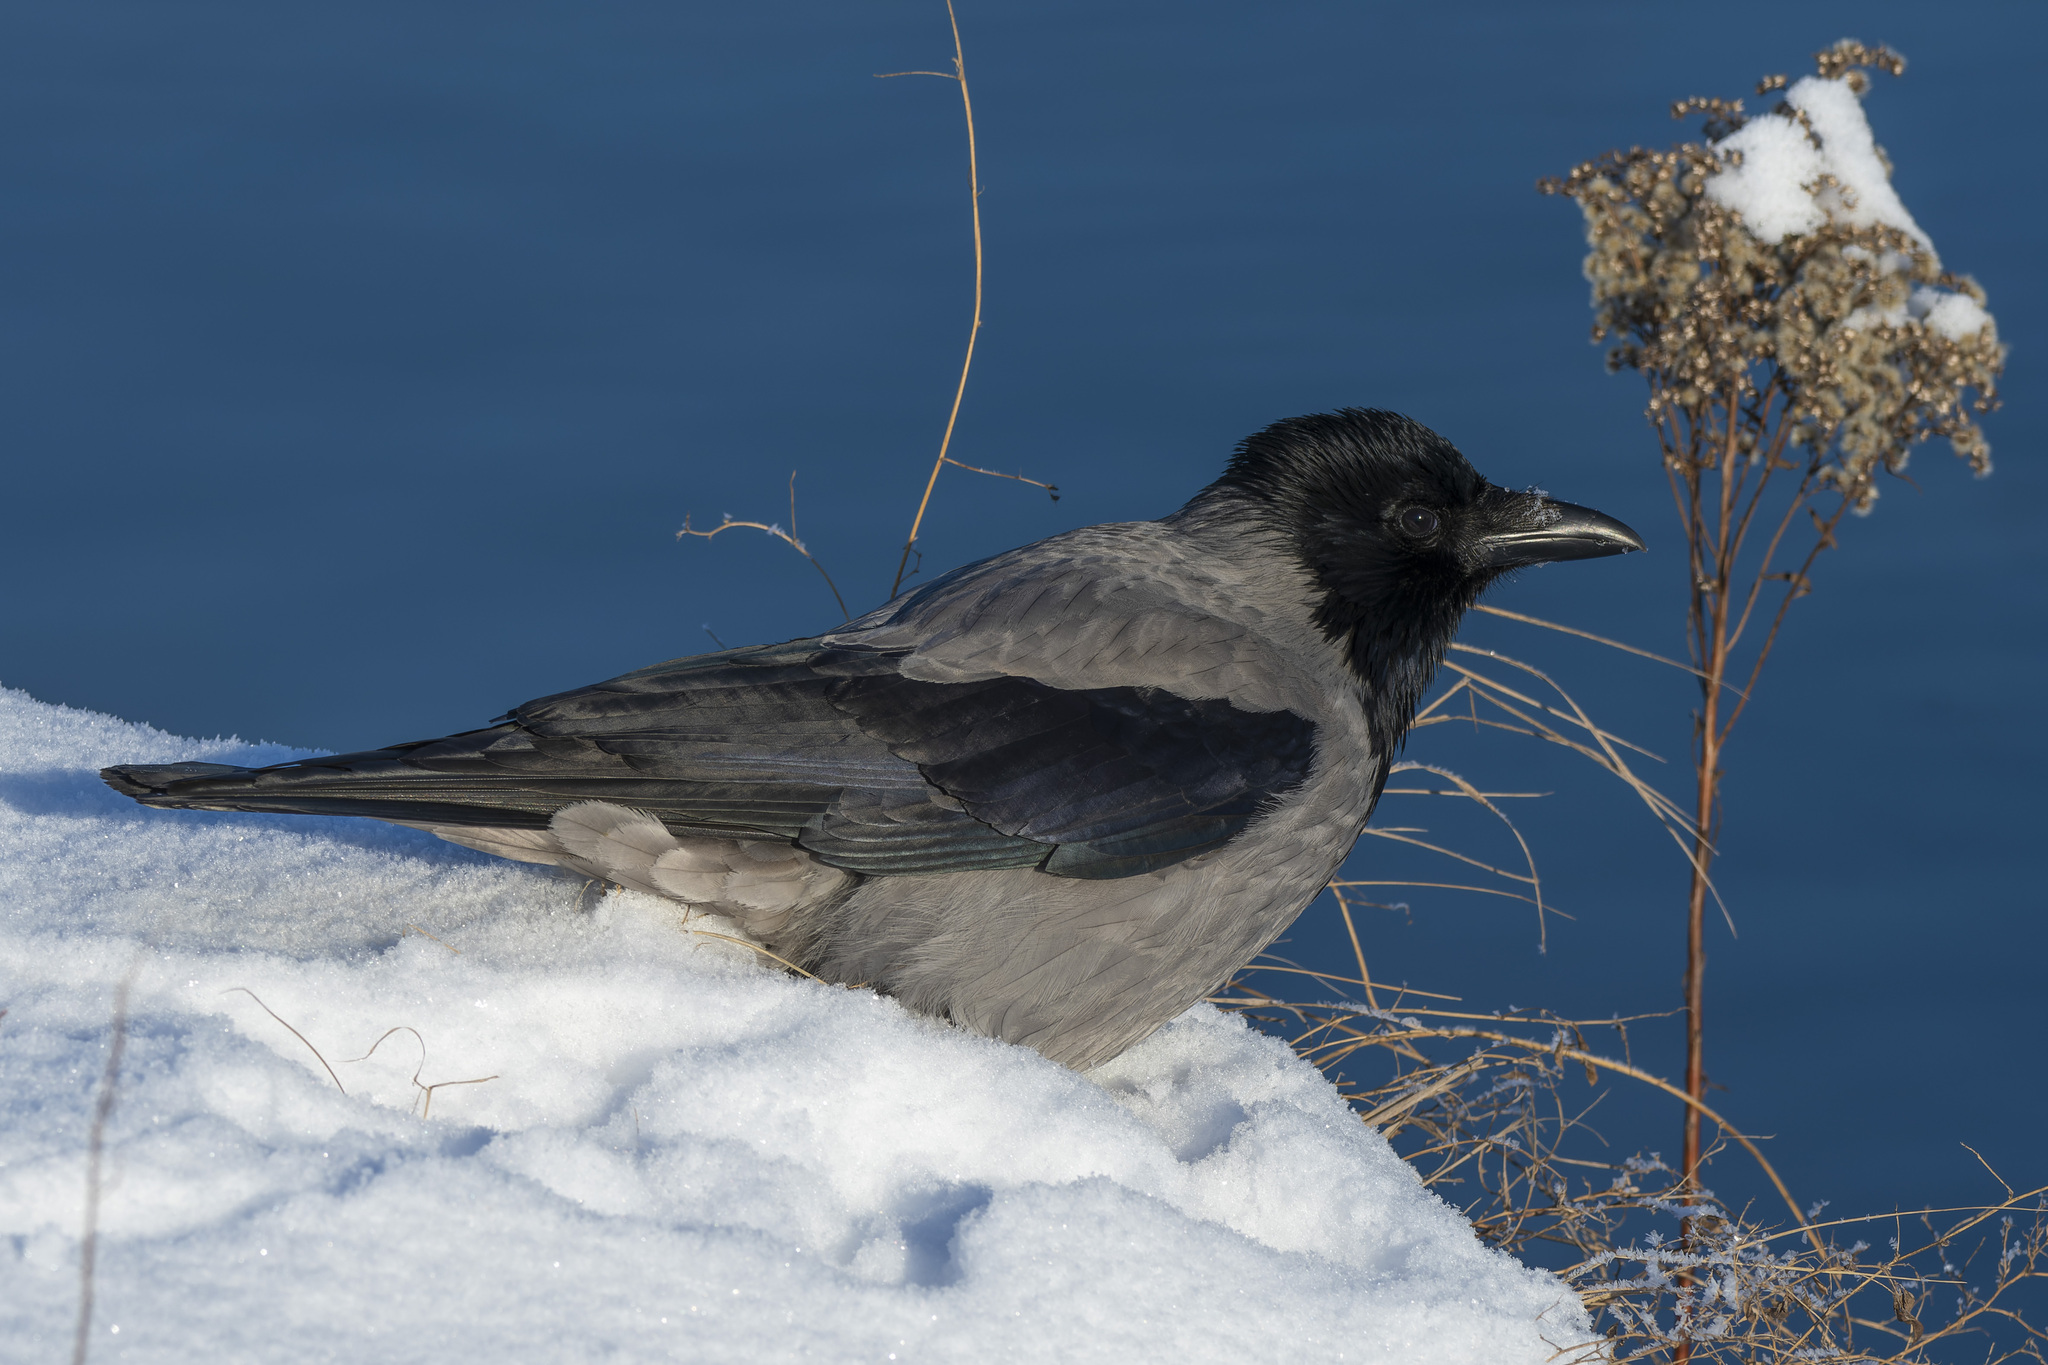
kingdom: Animalia
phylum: Chordata
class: Aves
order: Passeriformes
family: Corvidae
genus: Corvus
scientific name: Corvus cornix
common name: Hooded crow
